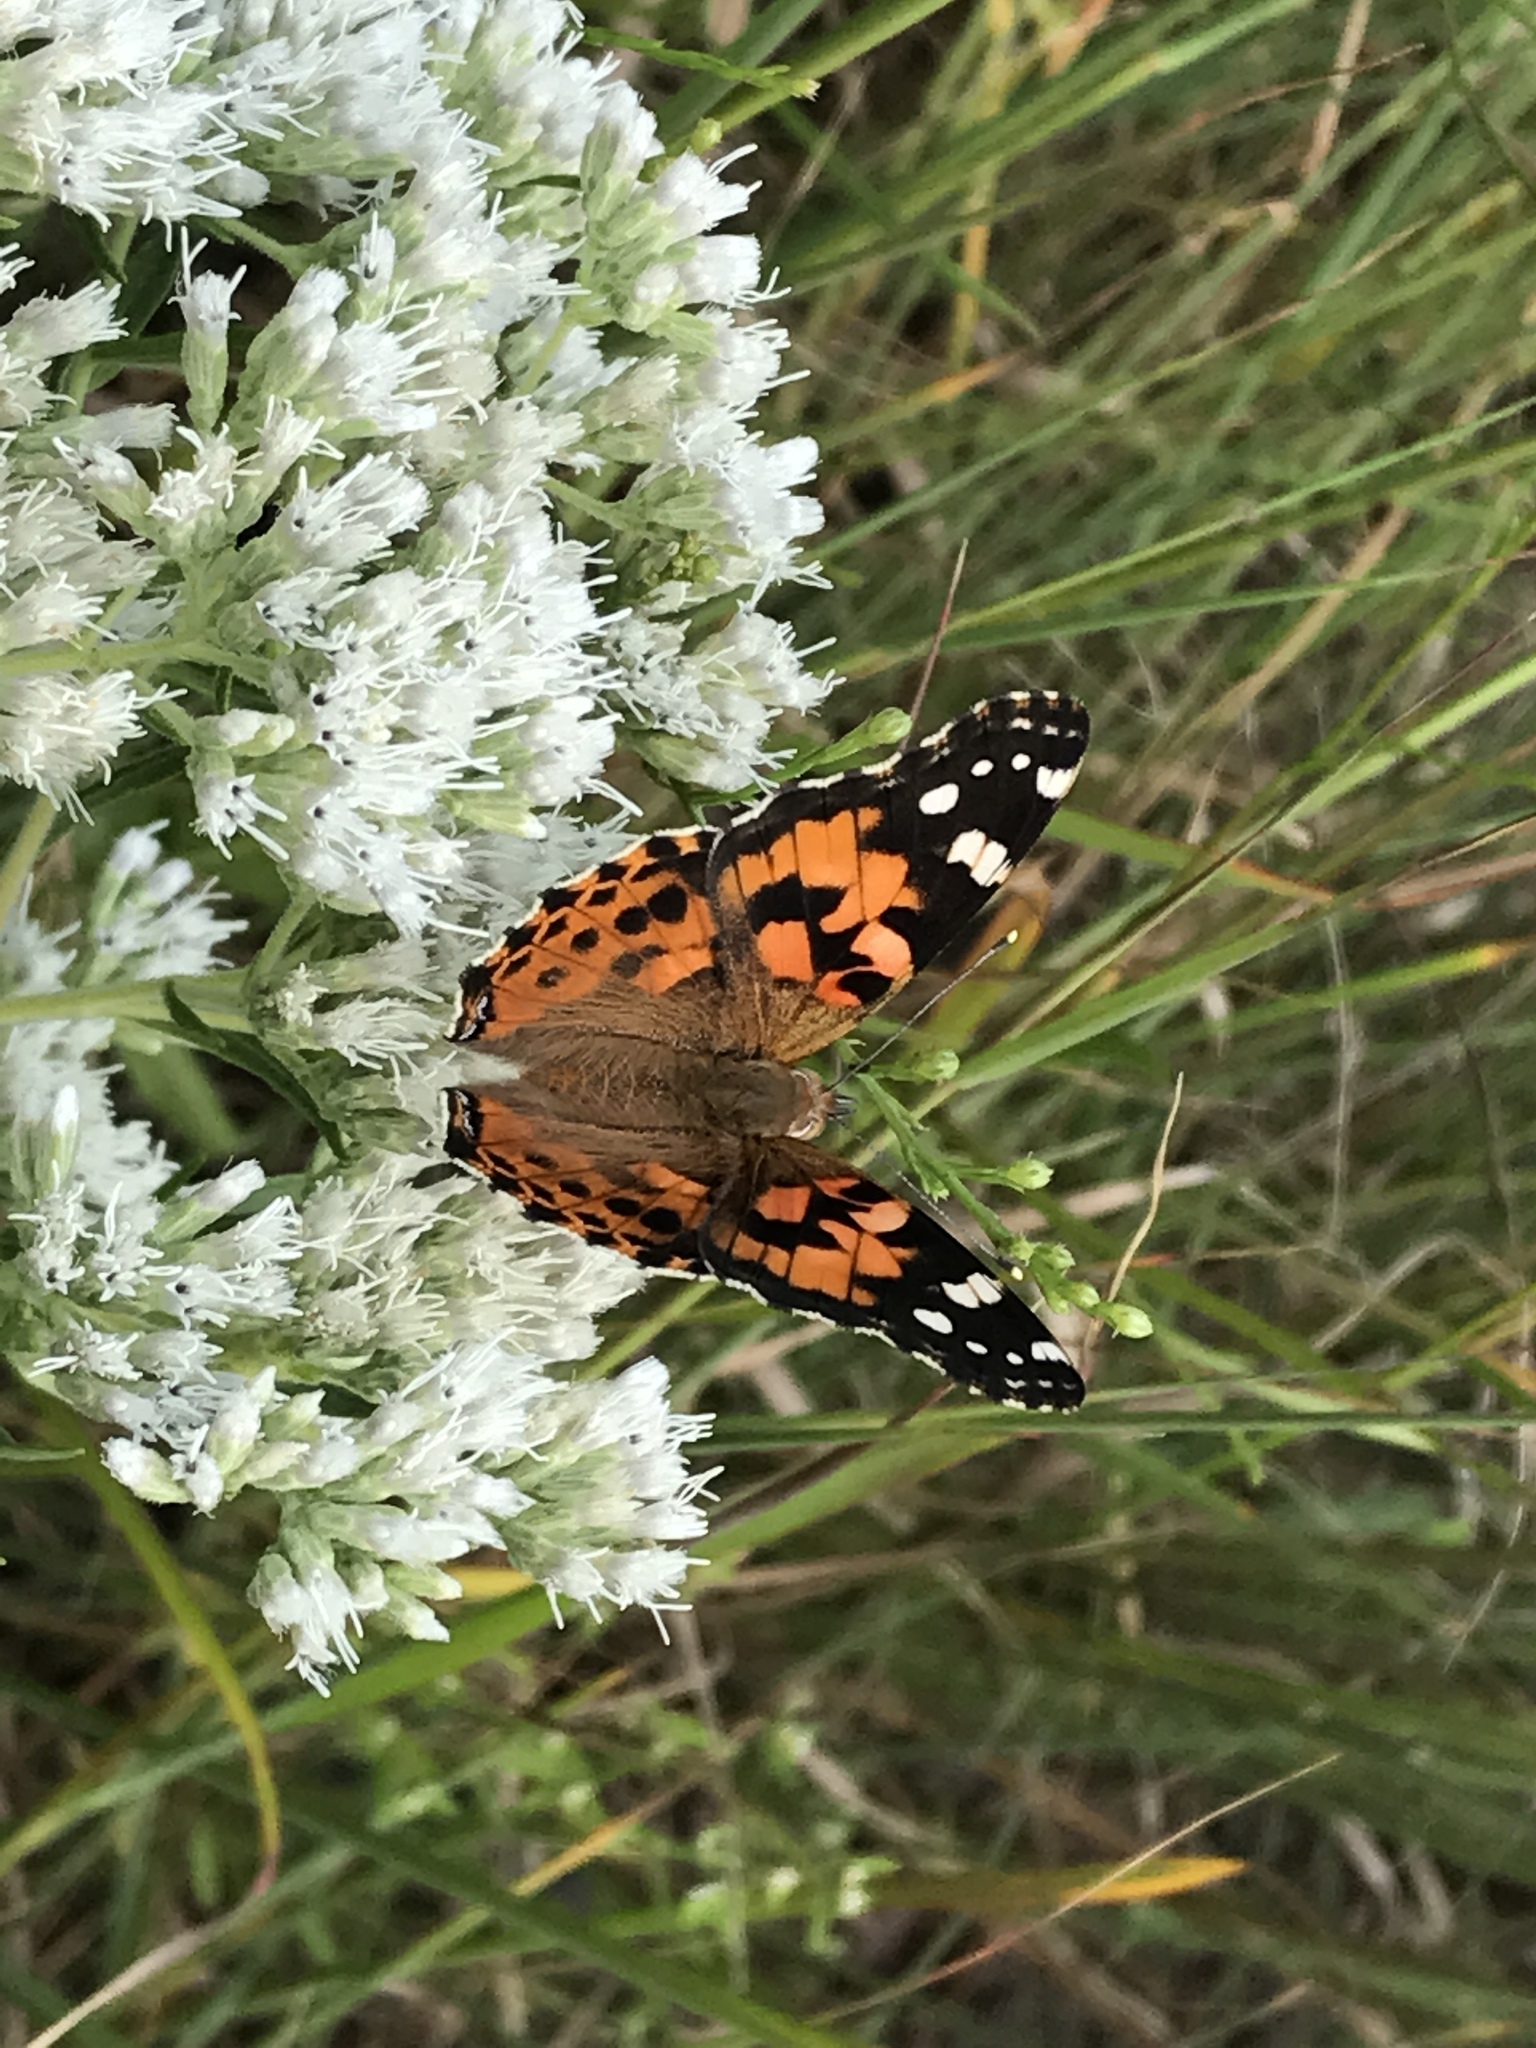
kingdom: Animalia
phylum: Arthropoda
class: Insecta
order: Lepidoptera
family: Nymphalidae
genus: Vanessa
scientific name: Vanessa cardui
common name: Painted lady
